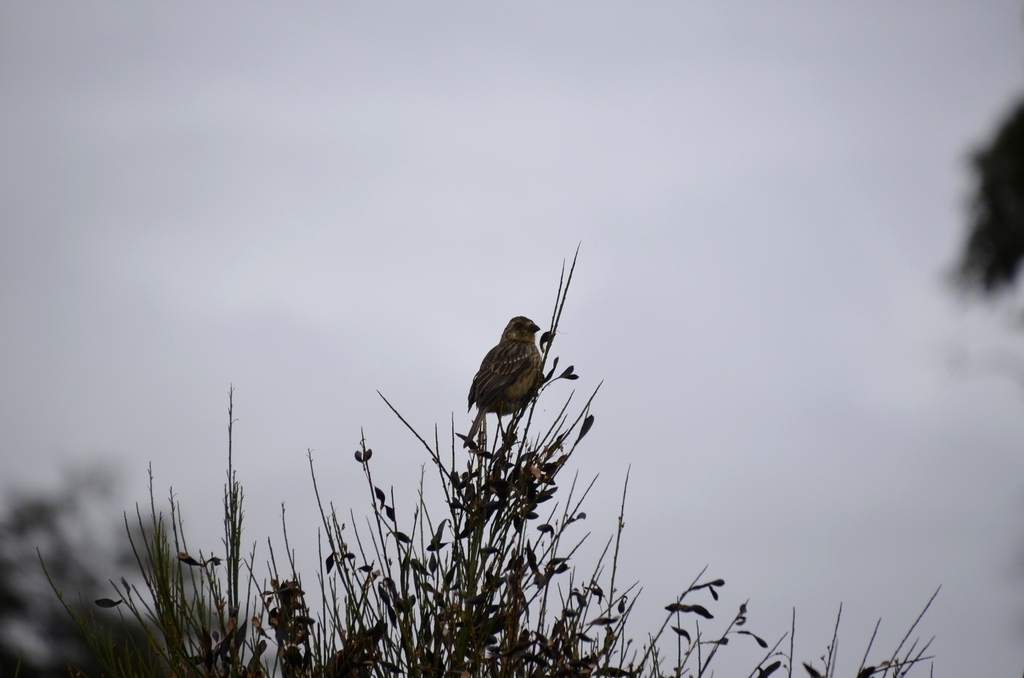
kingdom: Animalia
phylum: Chordata
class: Aves
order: Passeriformes
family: Cotingidae
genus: Phytotoma
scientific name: Phytotoma rara
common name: Rufous-tailed plantcutter
